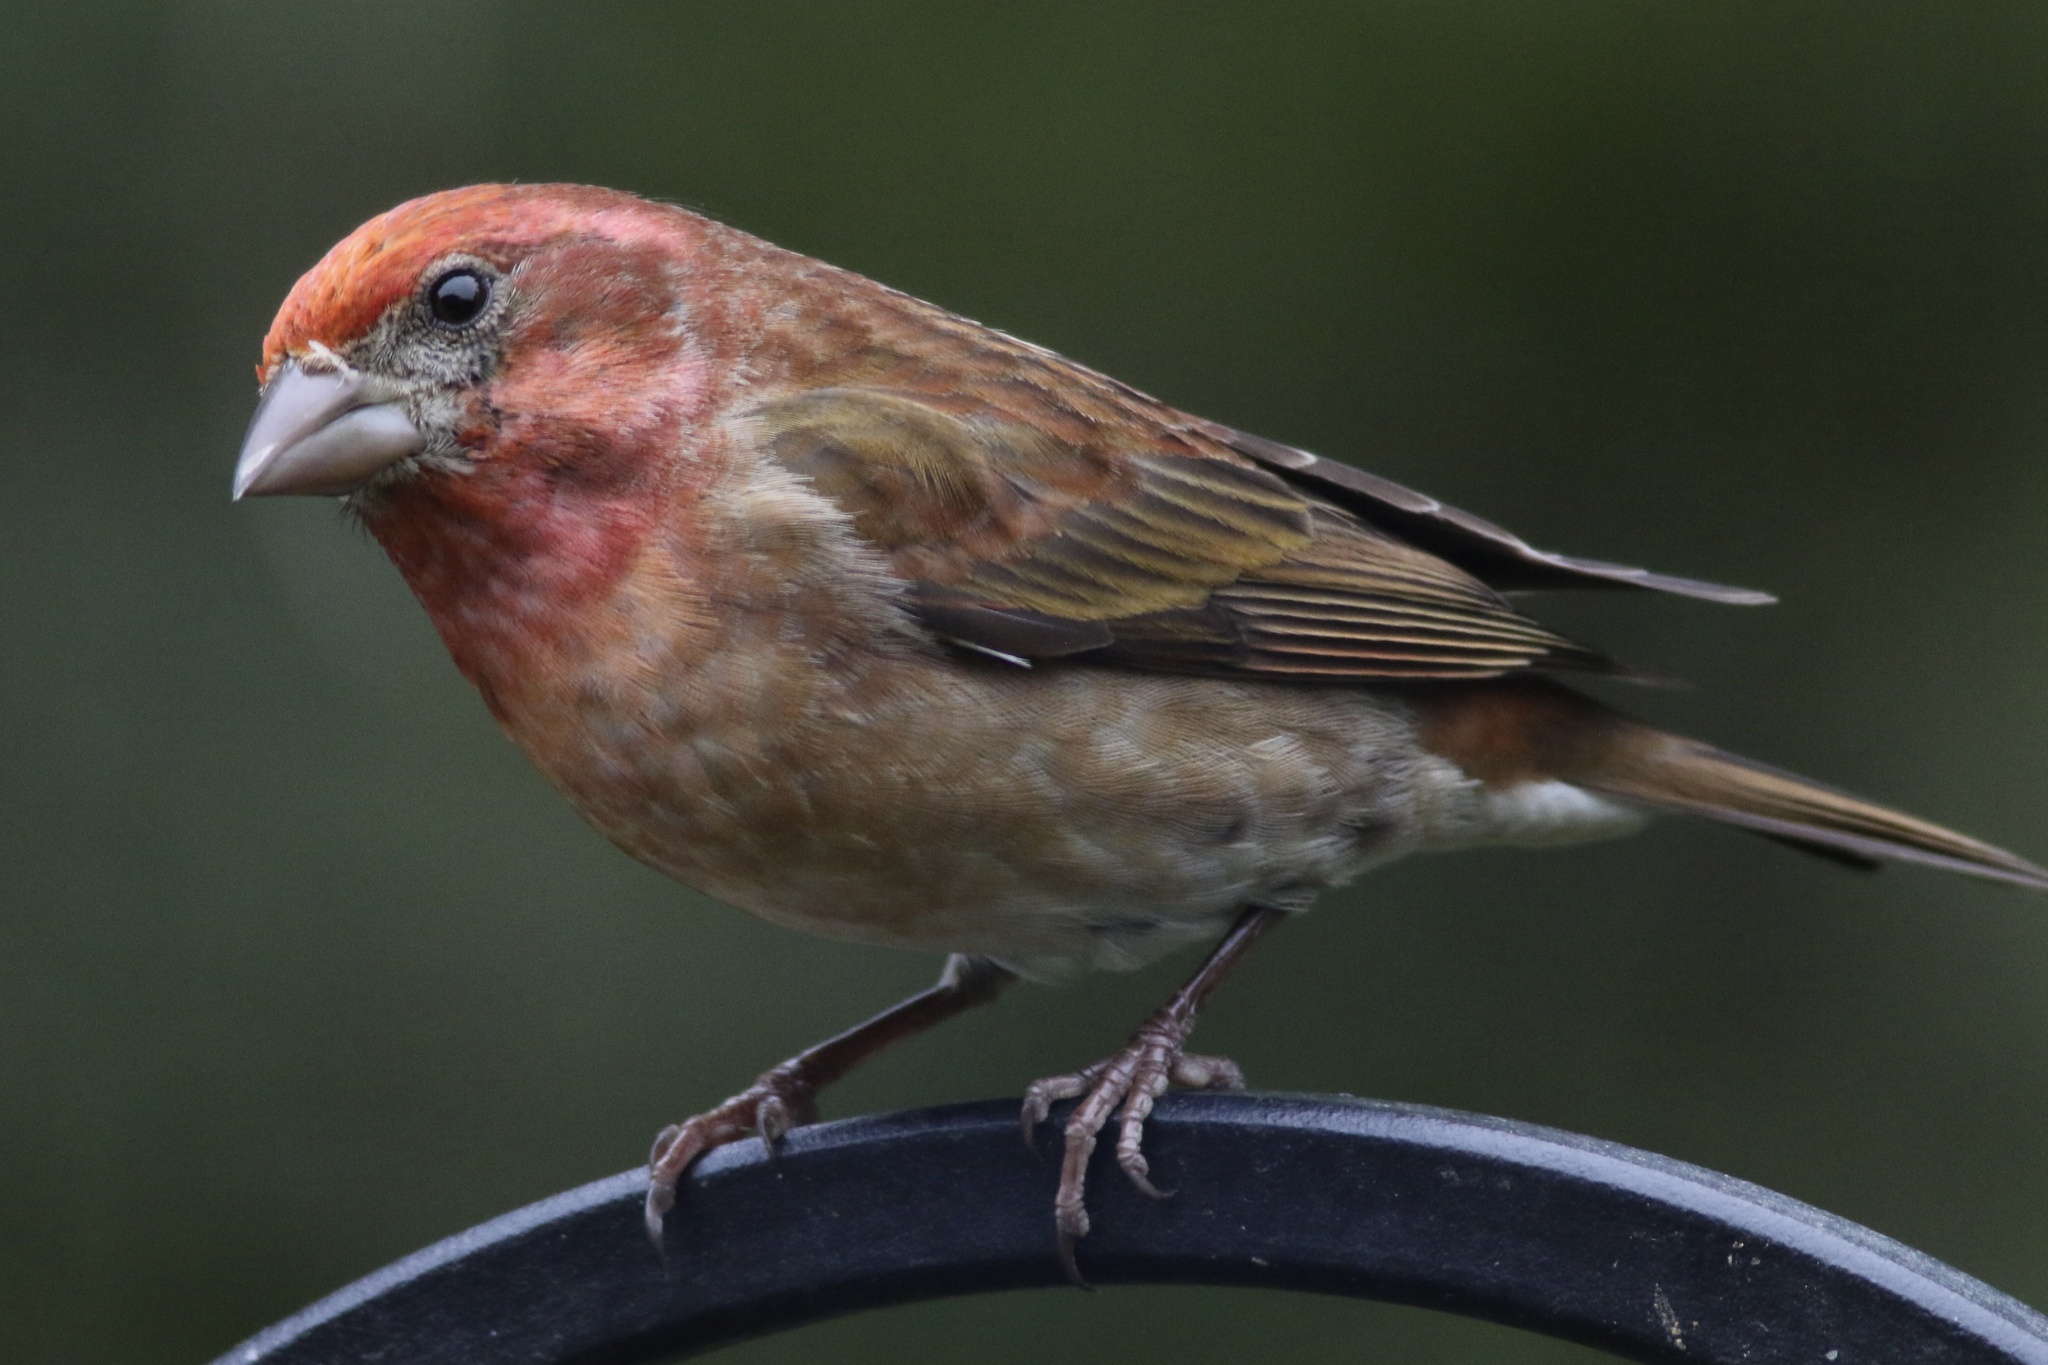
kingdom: Animalia
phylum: Chordata
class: Aves
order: Passeriformes
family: Fringillidae
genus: Haemorhous
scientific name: Haemorhous purpureus
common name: Purple finch
